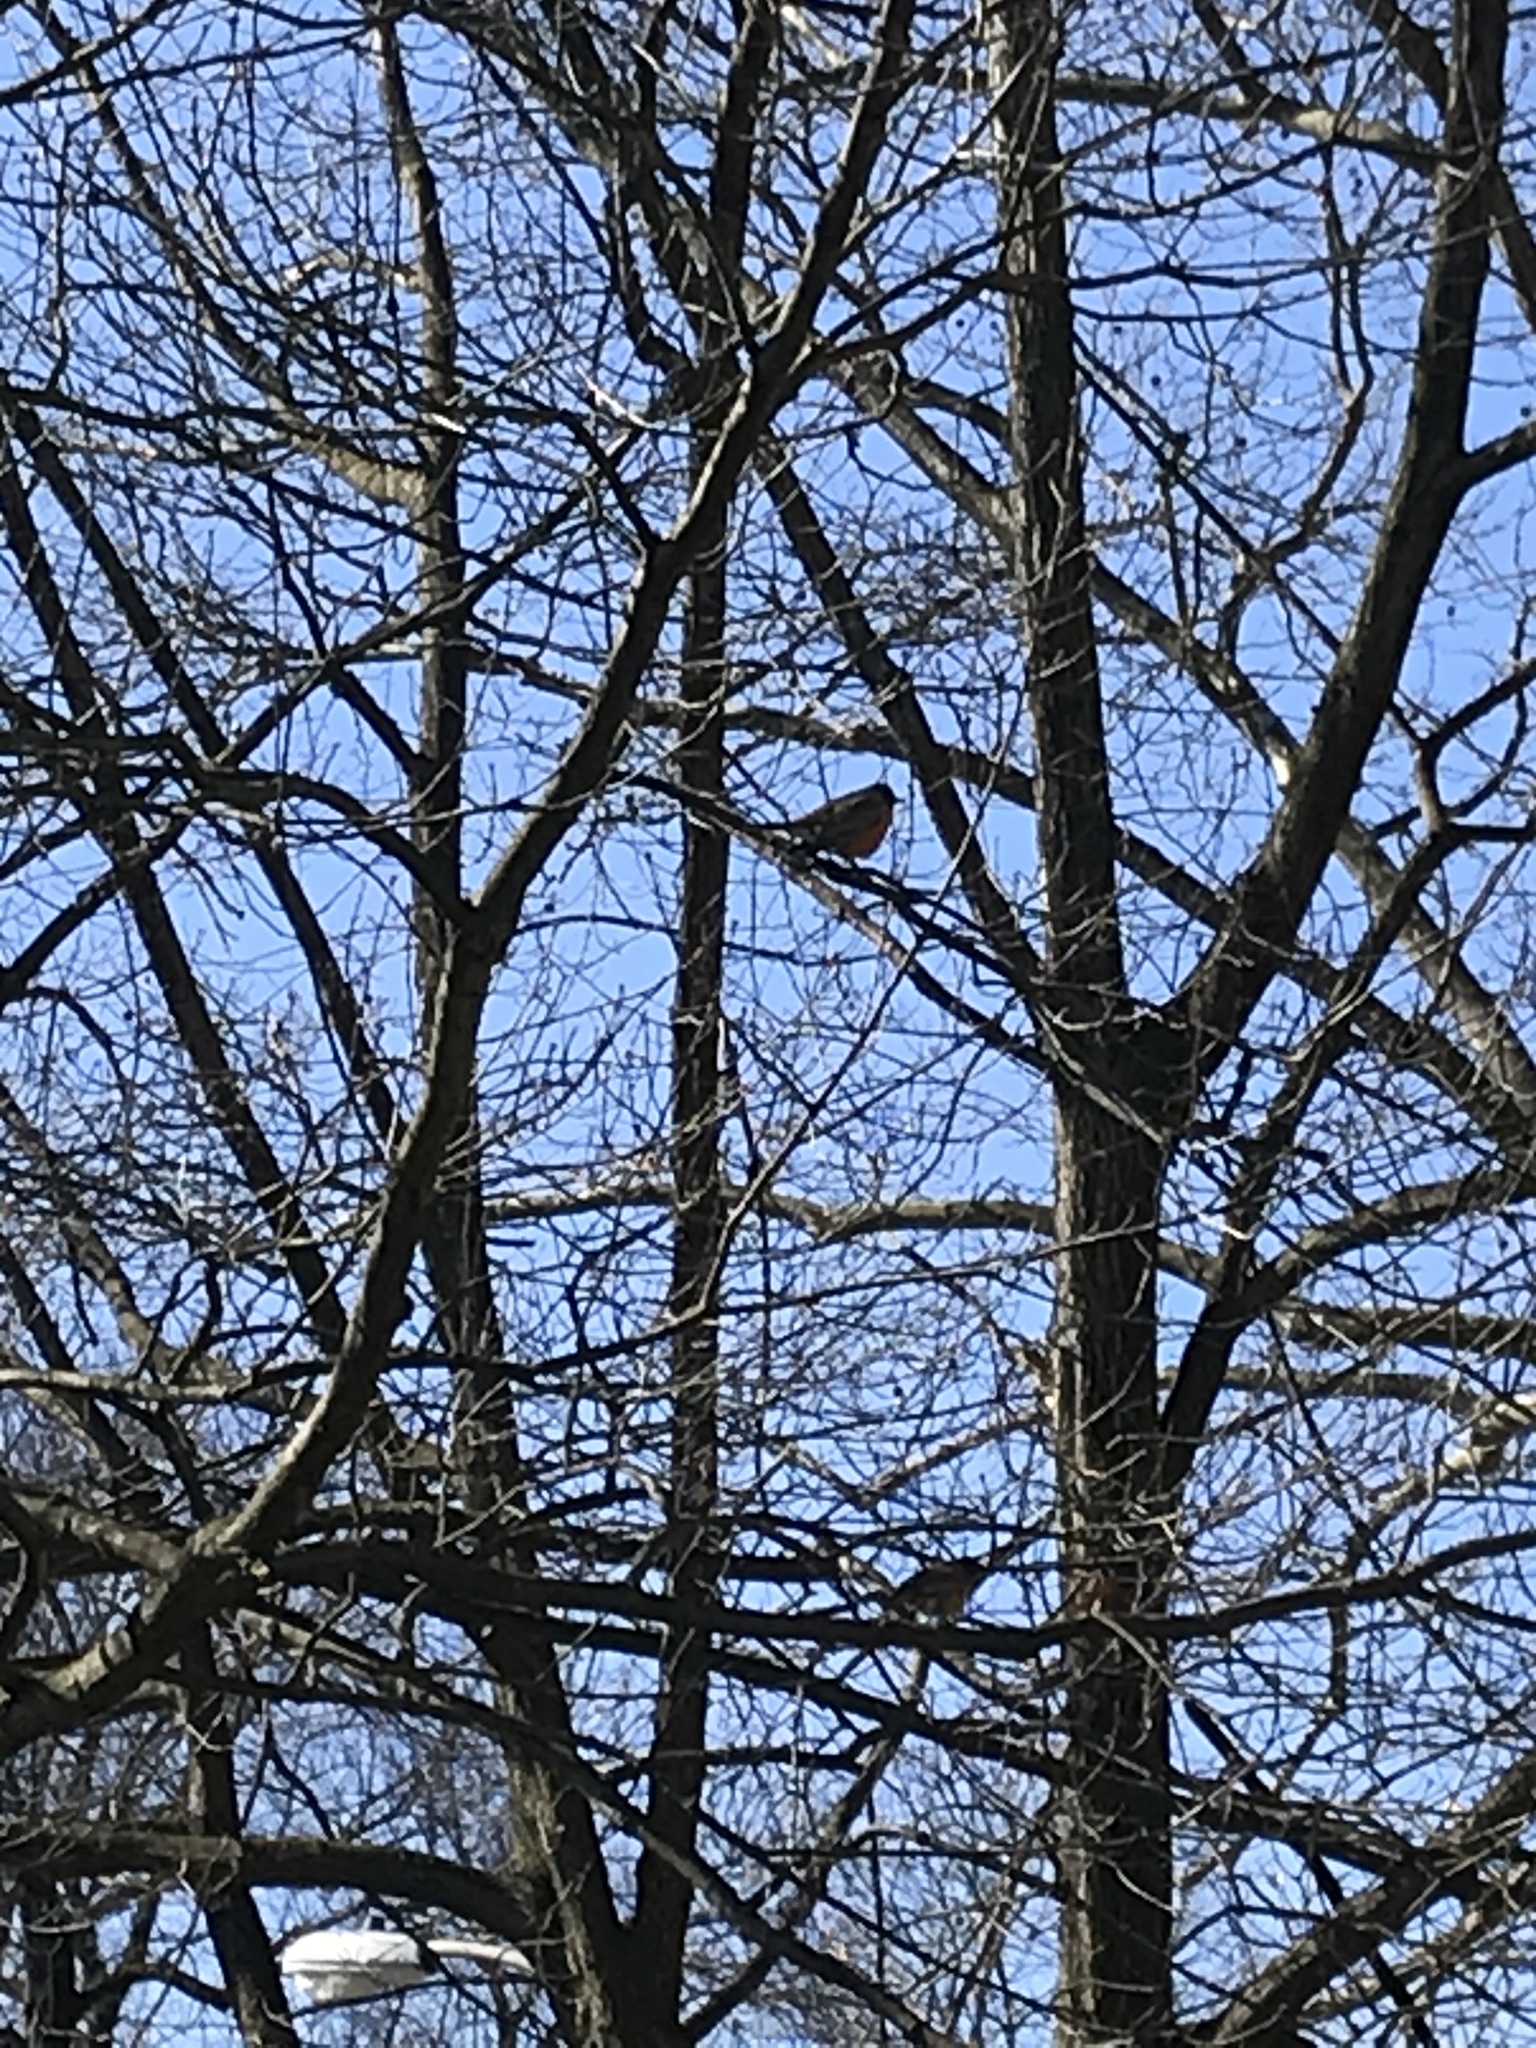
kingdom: Animalia
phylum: Chordata
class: Aves
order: Passeriformes
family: Turdidae
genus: Turdus
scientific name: Turdus migratorius
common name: American robin
